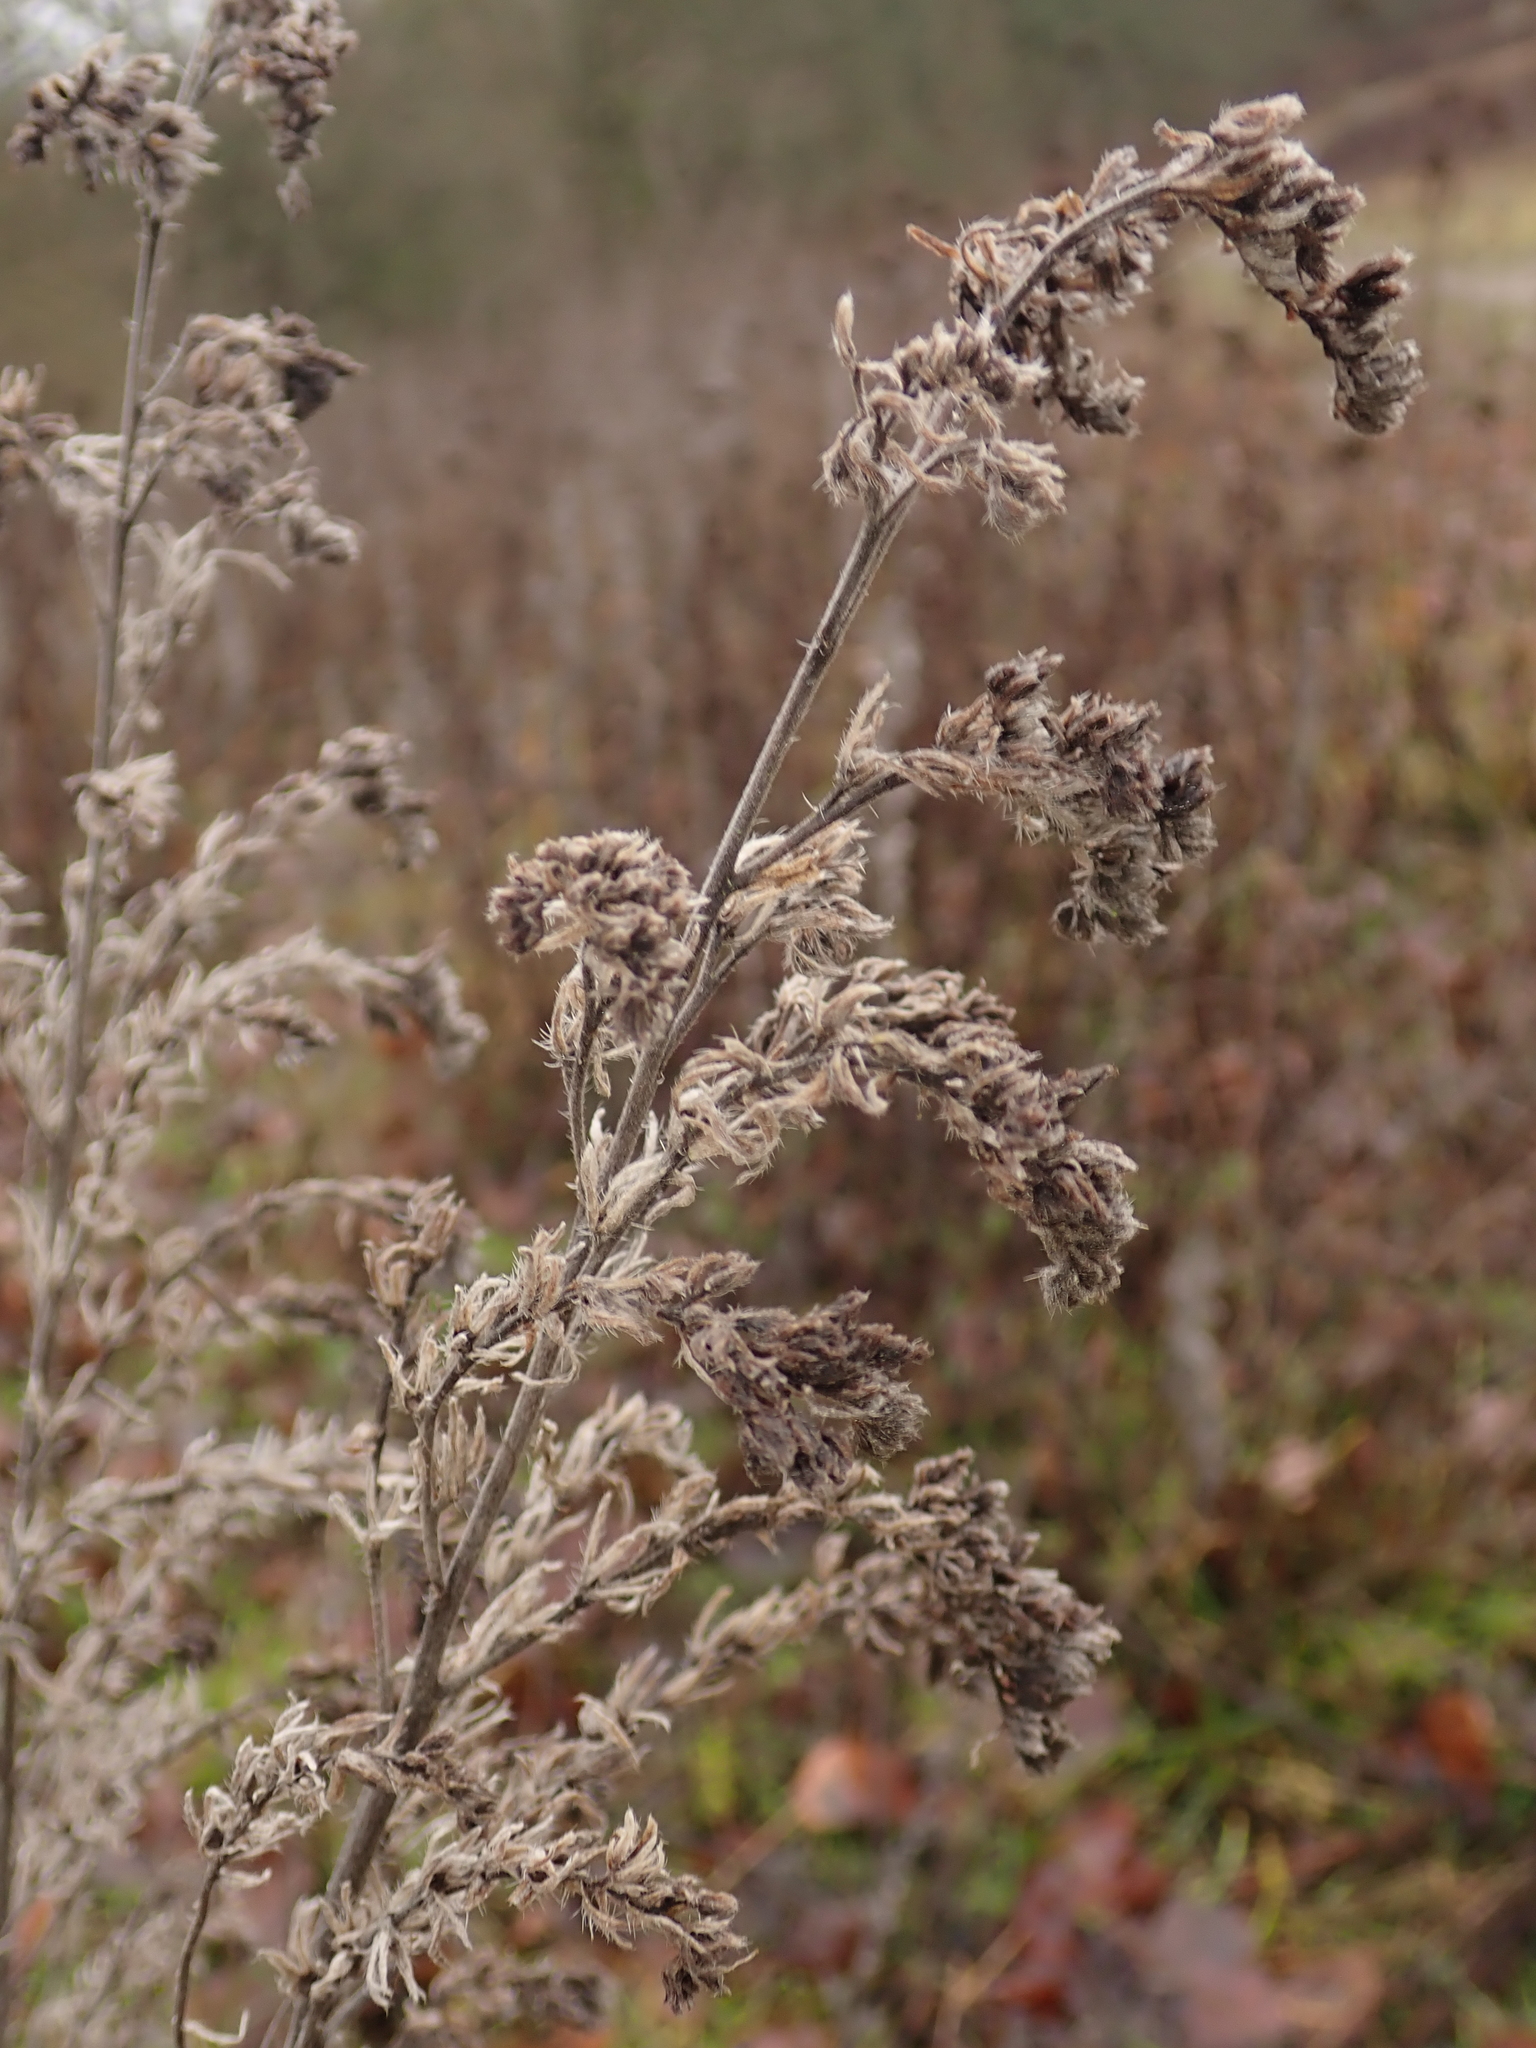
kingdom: Plantae
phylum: Tracheophyta
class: Magnoliopsida
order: Boraginales
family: Boraginaceae
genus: Echium
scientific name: Echium vulgare
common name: Common viper's bugloss
